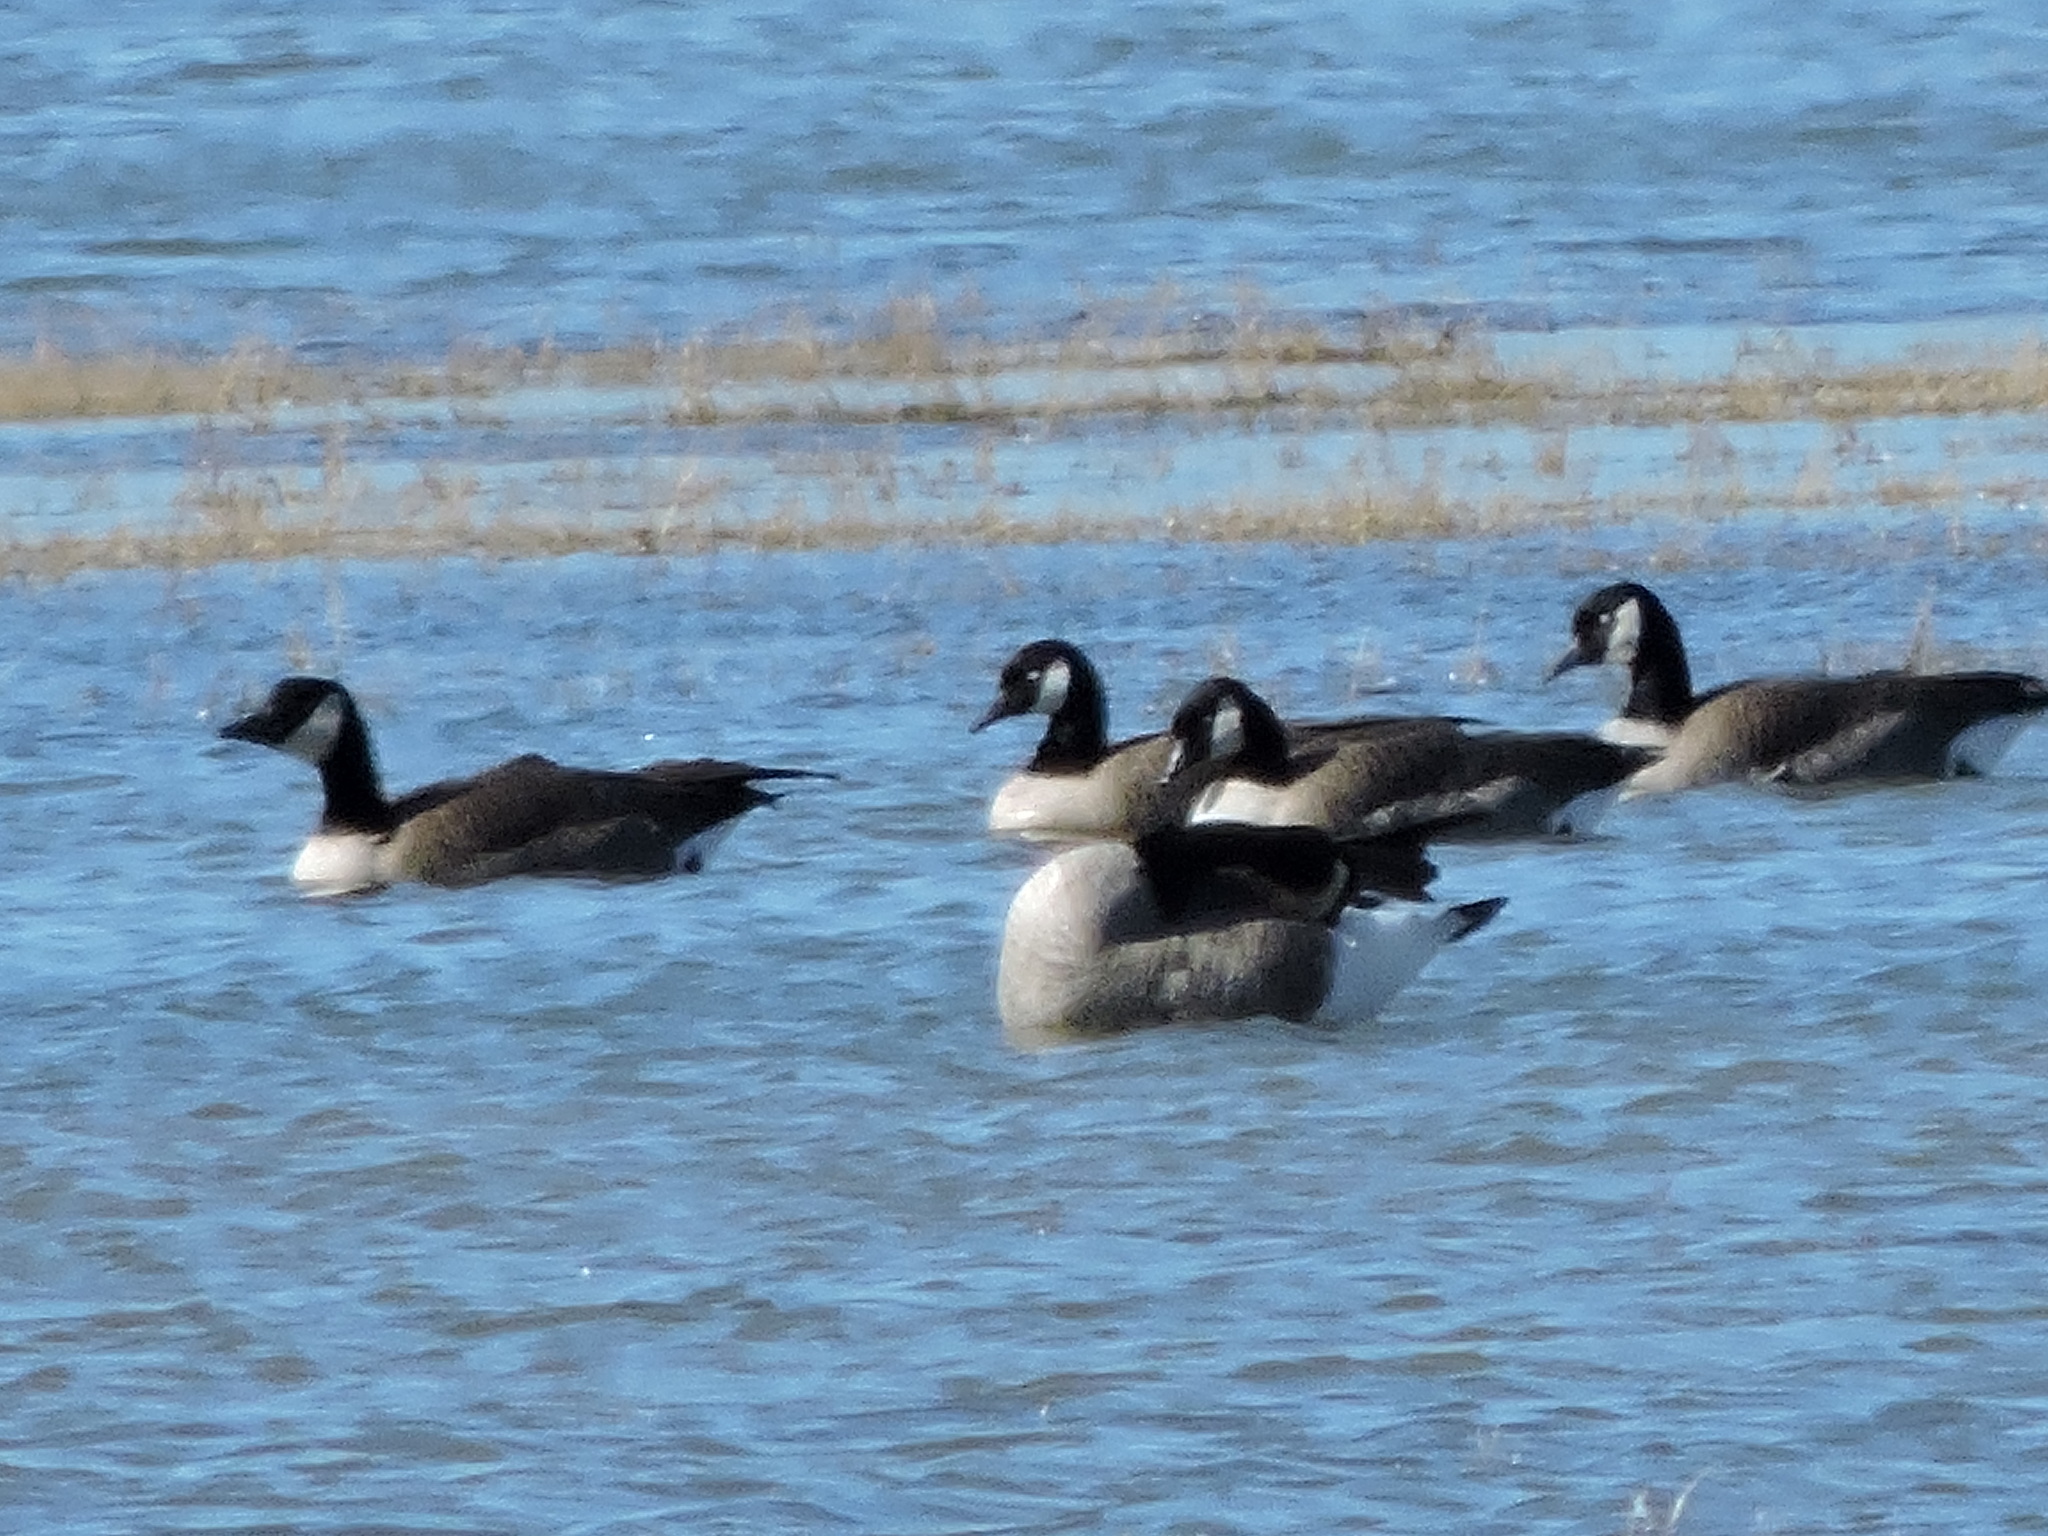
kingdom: Animalia
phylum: Chordata
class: Aves
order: Anseriformes
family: Anatidae
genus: Branta
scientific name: Branta canadensis
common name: Canada goose
